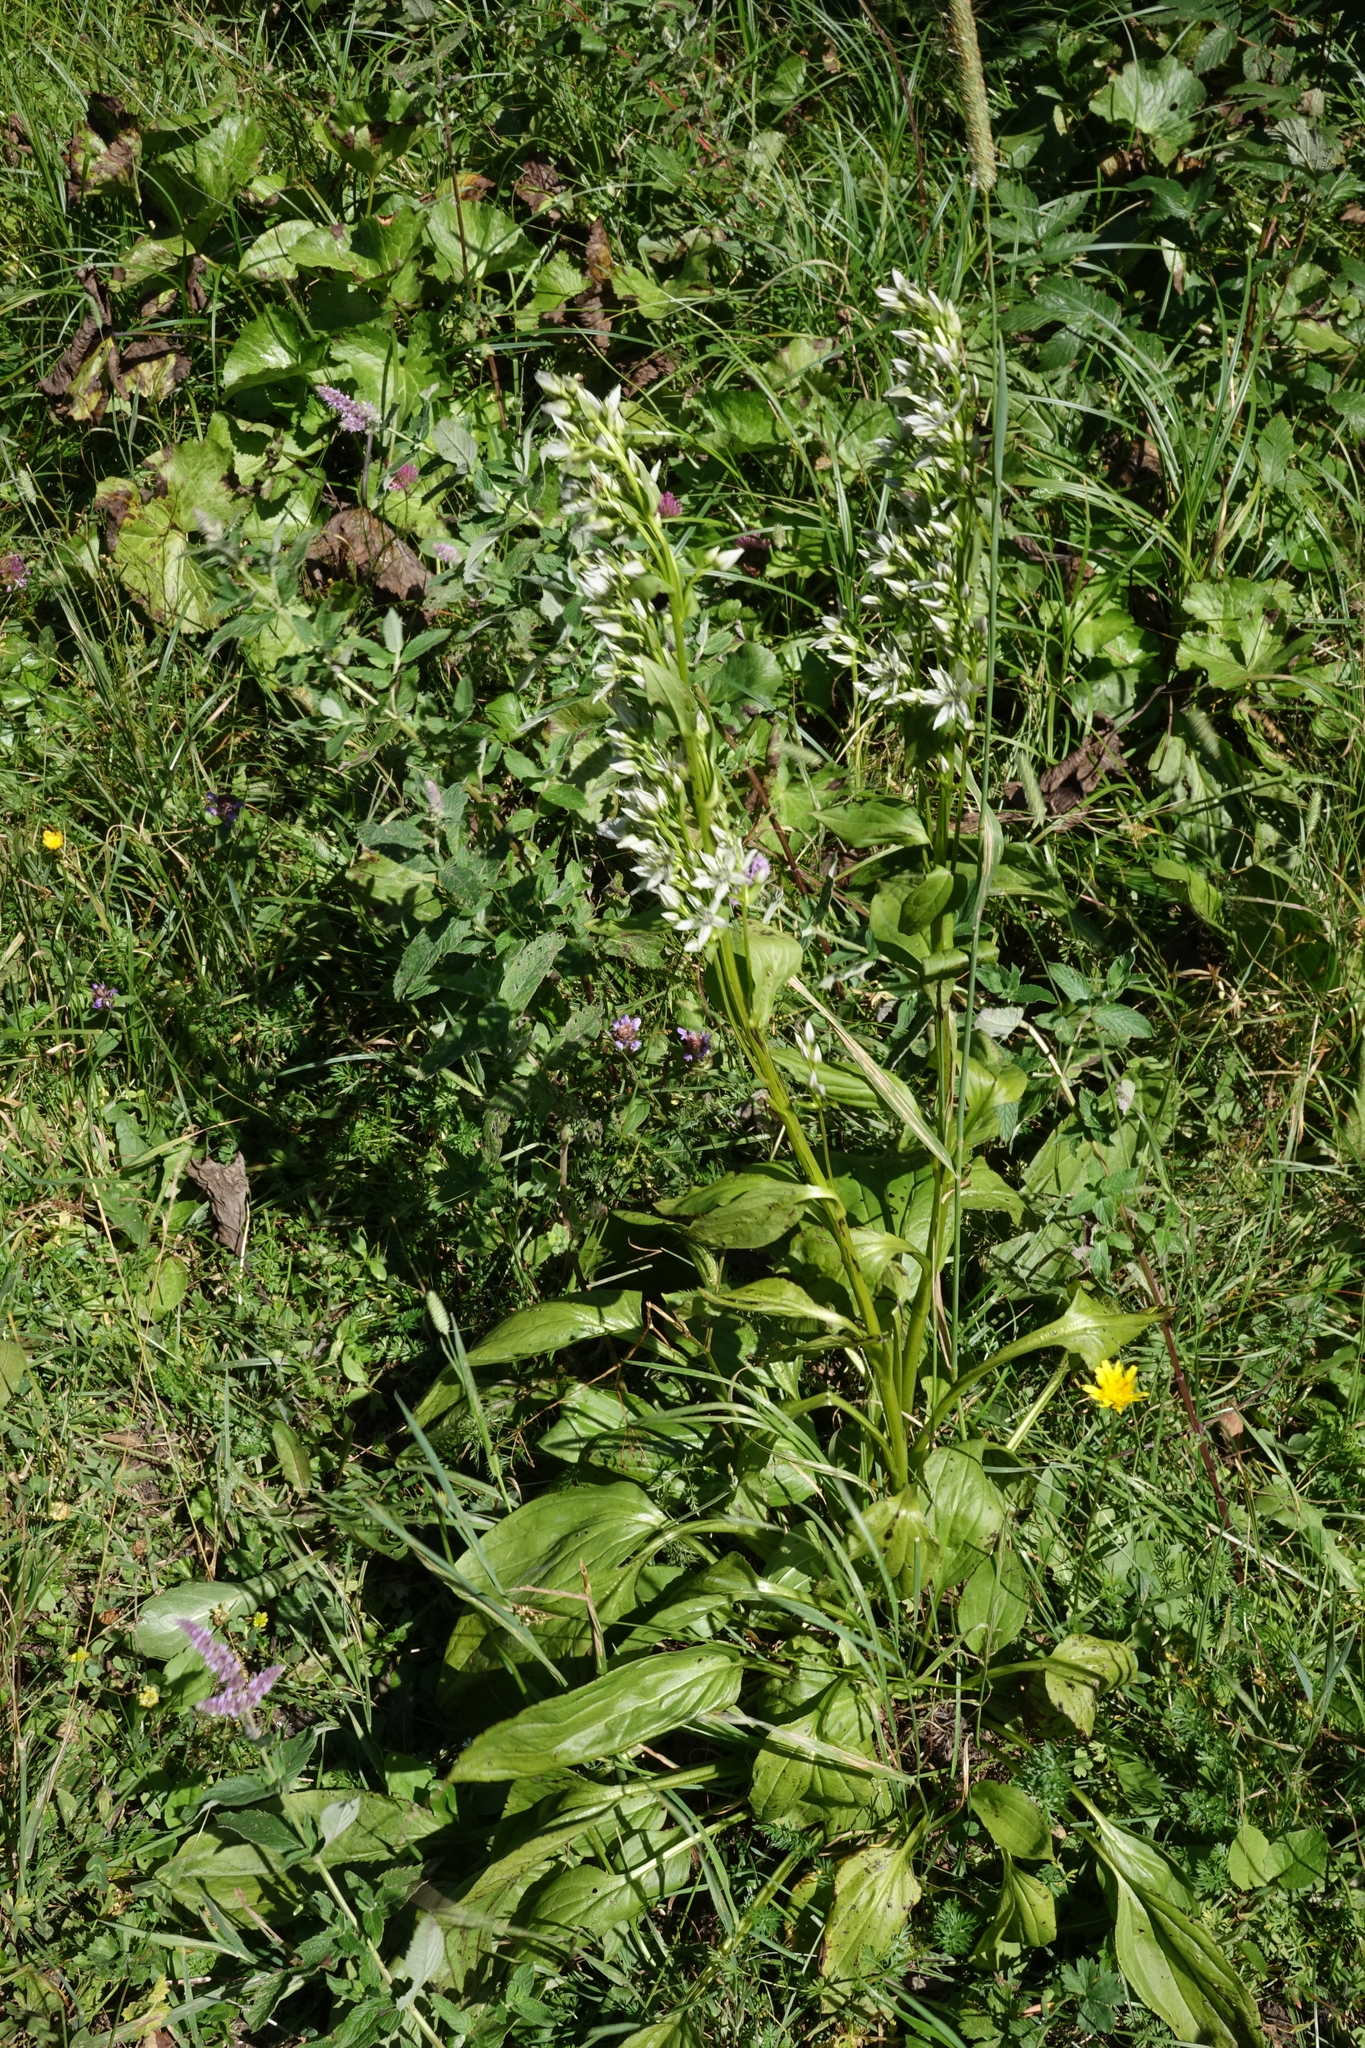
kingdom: Plantae
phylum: Tracheophyta
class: Magnoliopsida
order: Gentianales
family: Gentianaceae
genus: Swertia
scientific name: Swertia iberica
